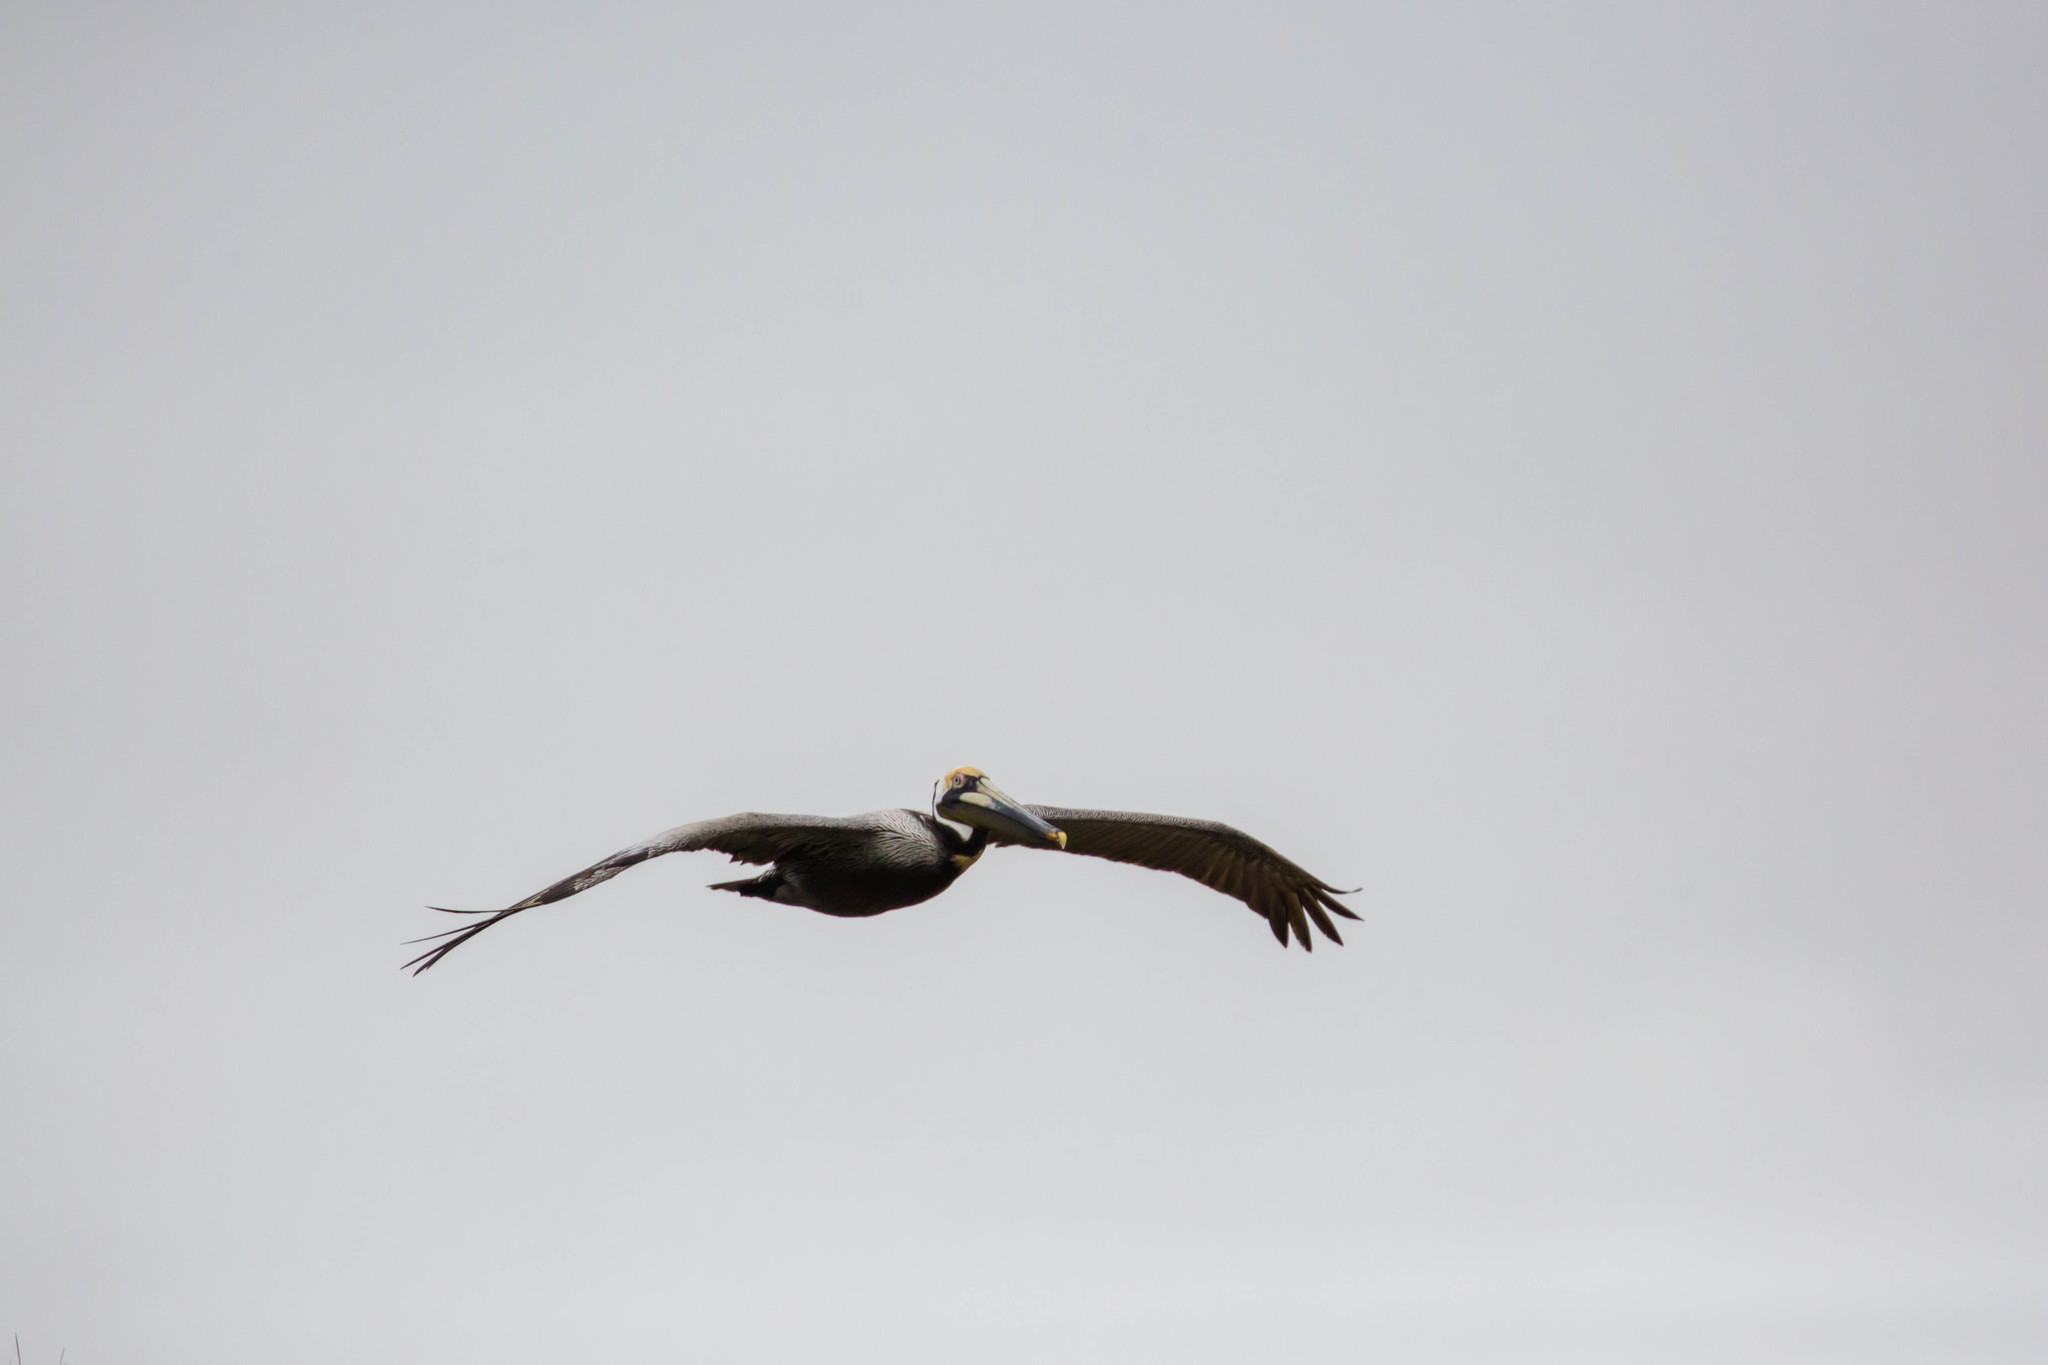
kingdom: Animalia
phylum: Chordata
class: Aves
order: Pelecaniformes
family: Pelecanidae
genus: Pelecanus
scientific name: Pelecanus occidentalis
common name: Brown pelican
